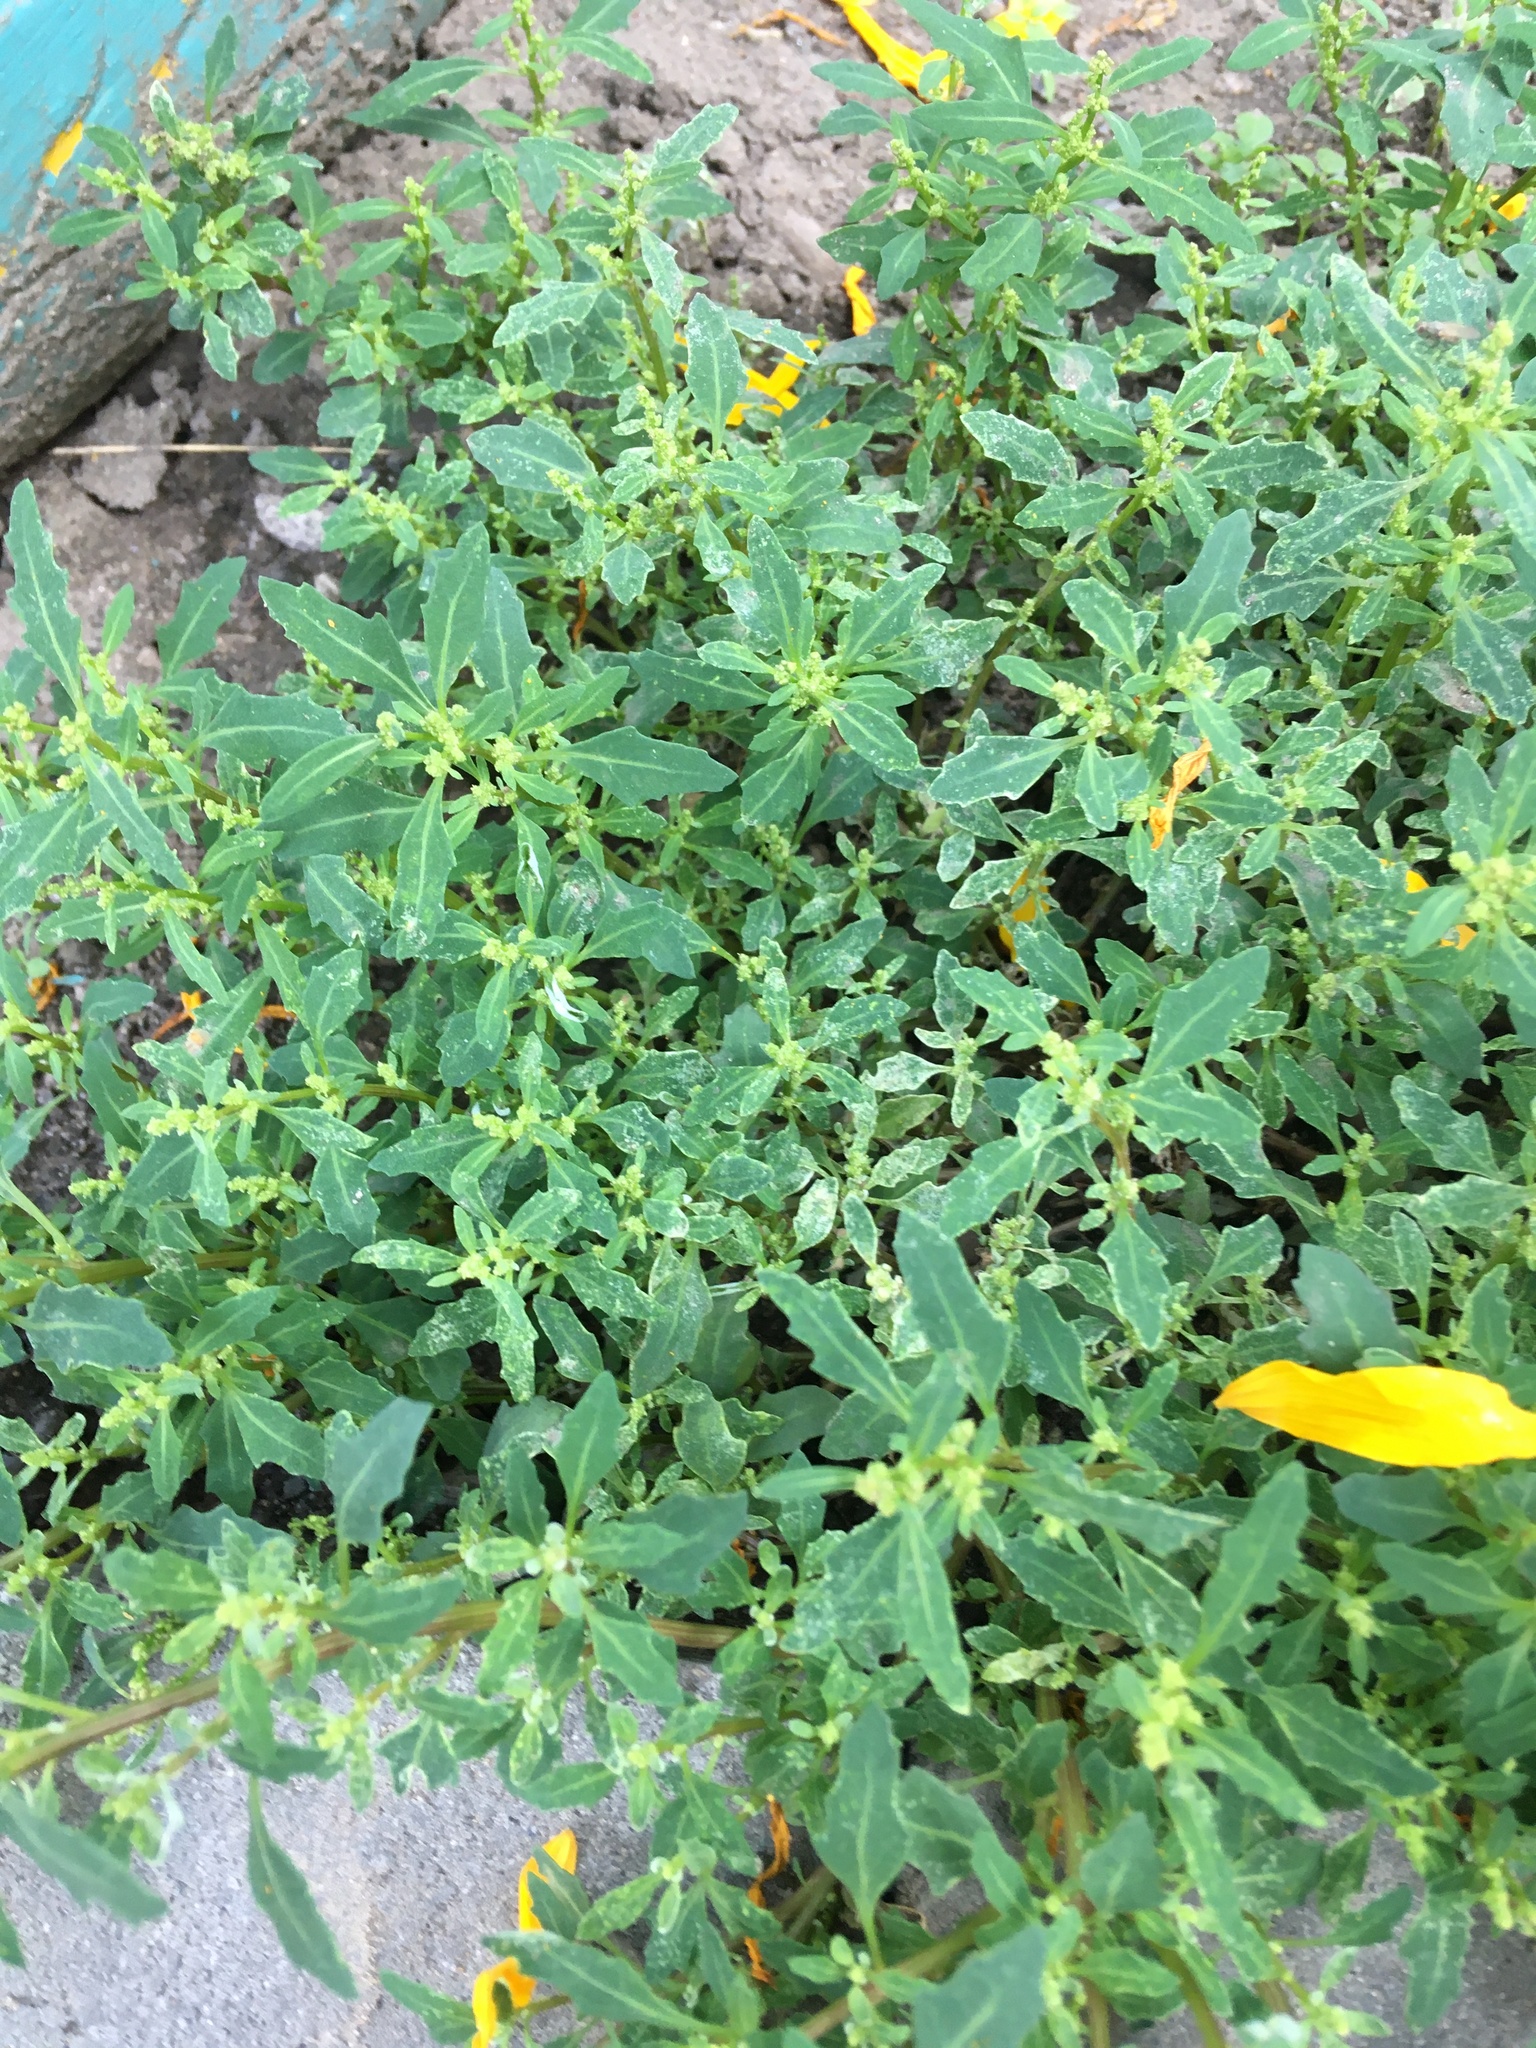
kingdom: Plantae
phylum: Tracheophyta
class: Magnoliopsida
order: Caryophyllales
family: Amaranthaceae
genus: Oxybasis
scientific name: Oxybasis glauca
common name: Glaucous goosefoot
